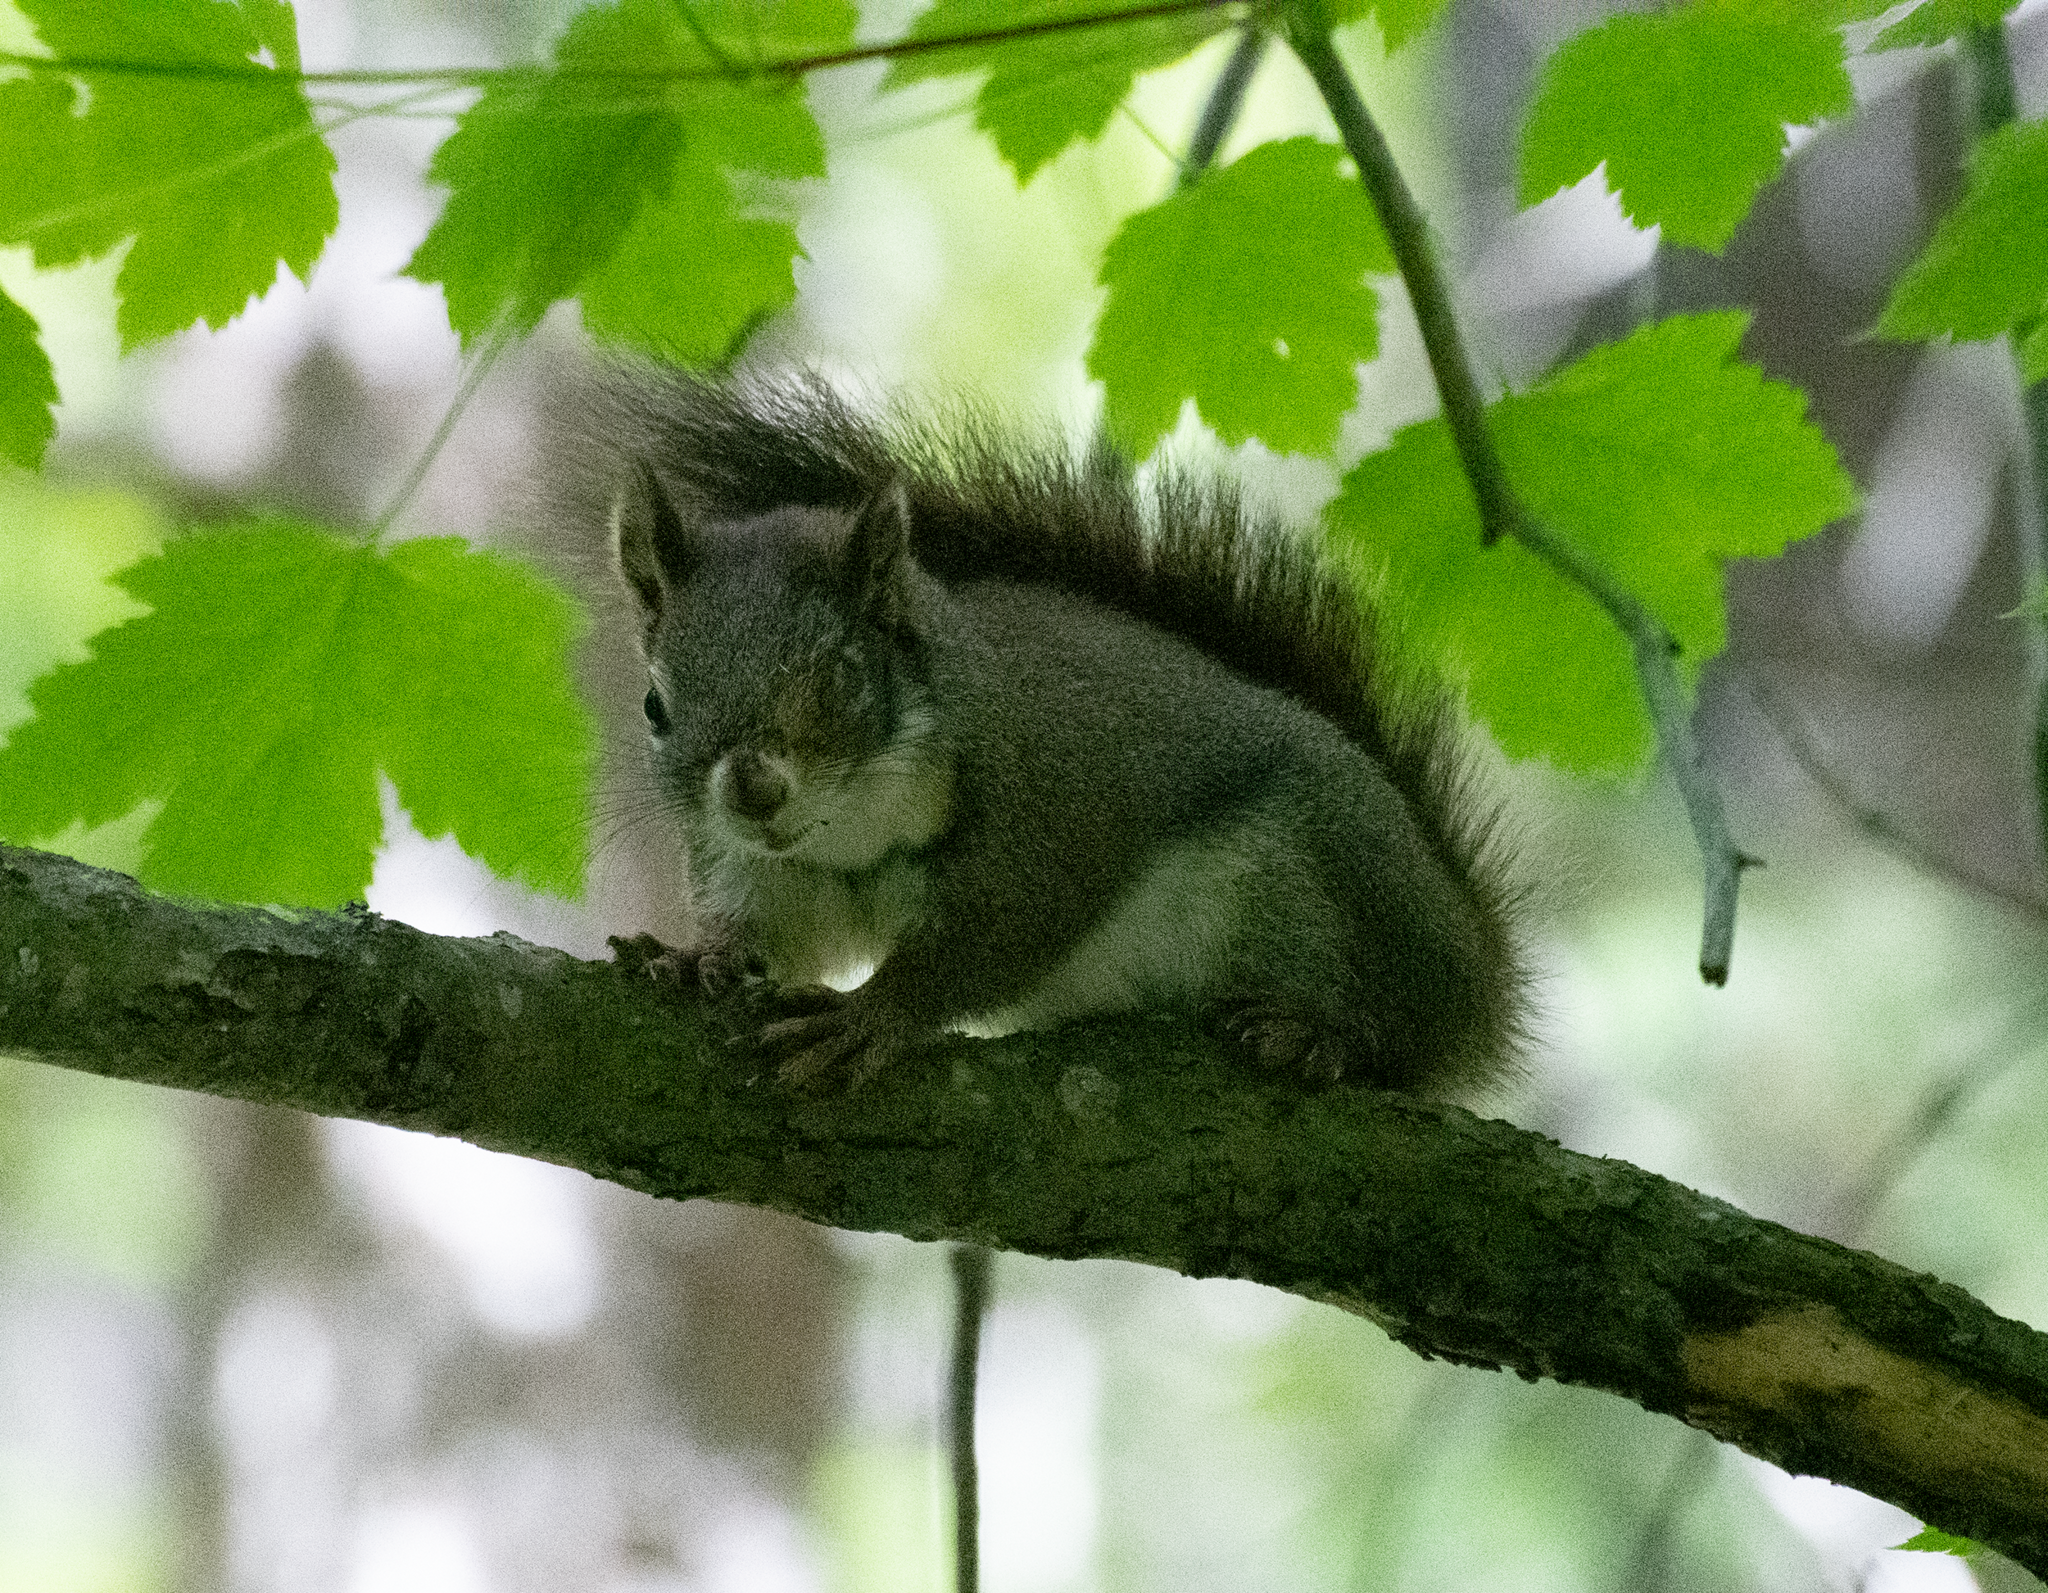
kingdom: Animalia
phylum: Chordata
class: Mammalia
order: Rodentia
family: Sciuridae
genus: Tamiasciurus
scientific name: Tamiasciurus hudsonicus
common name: Red squirrel
